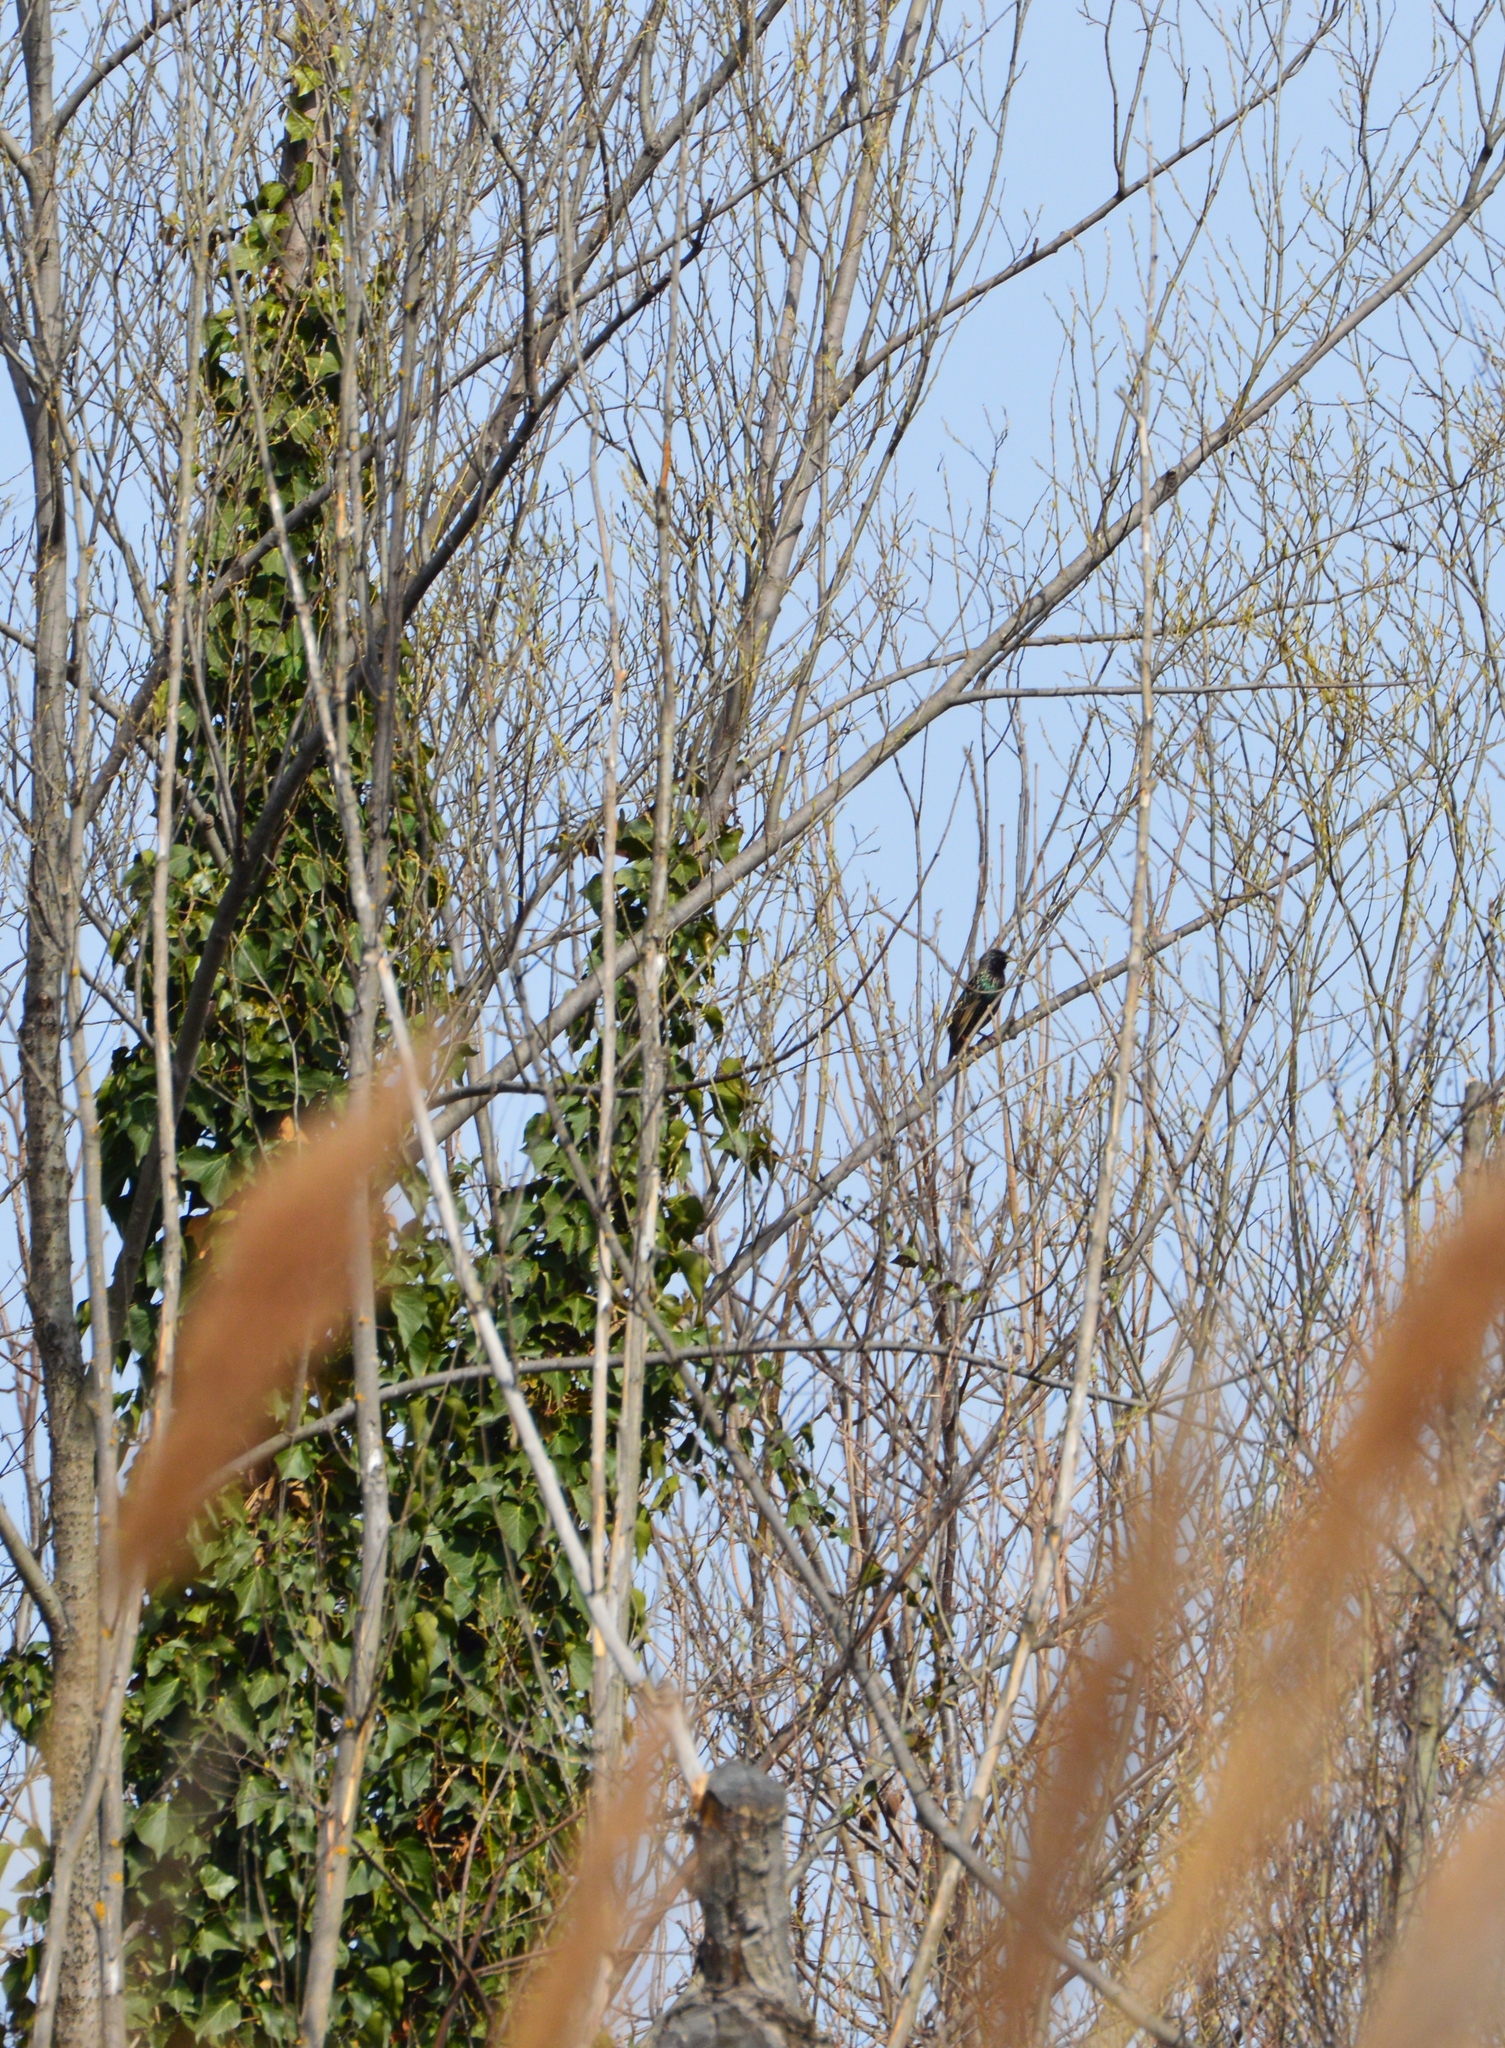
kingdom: Animalia
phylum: Chordata
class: Aves
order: Passeriformes
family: Sturnidae
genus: Sturnus
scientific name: Sturnus vulgaris
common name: Common starling
